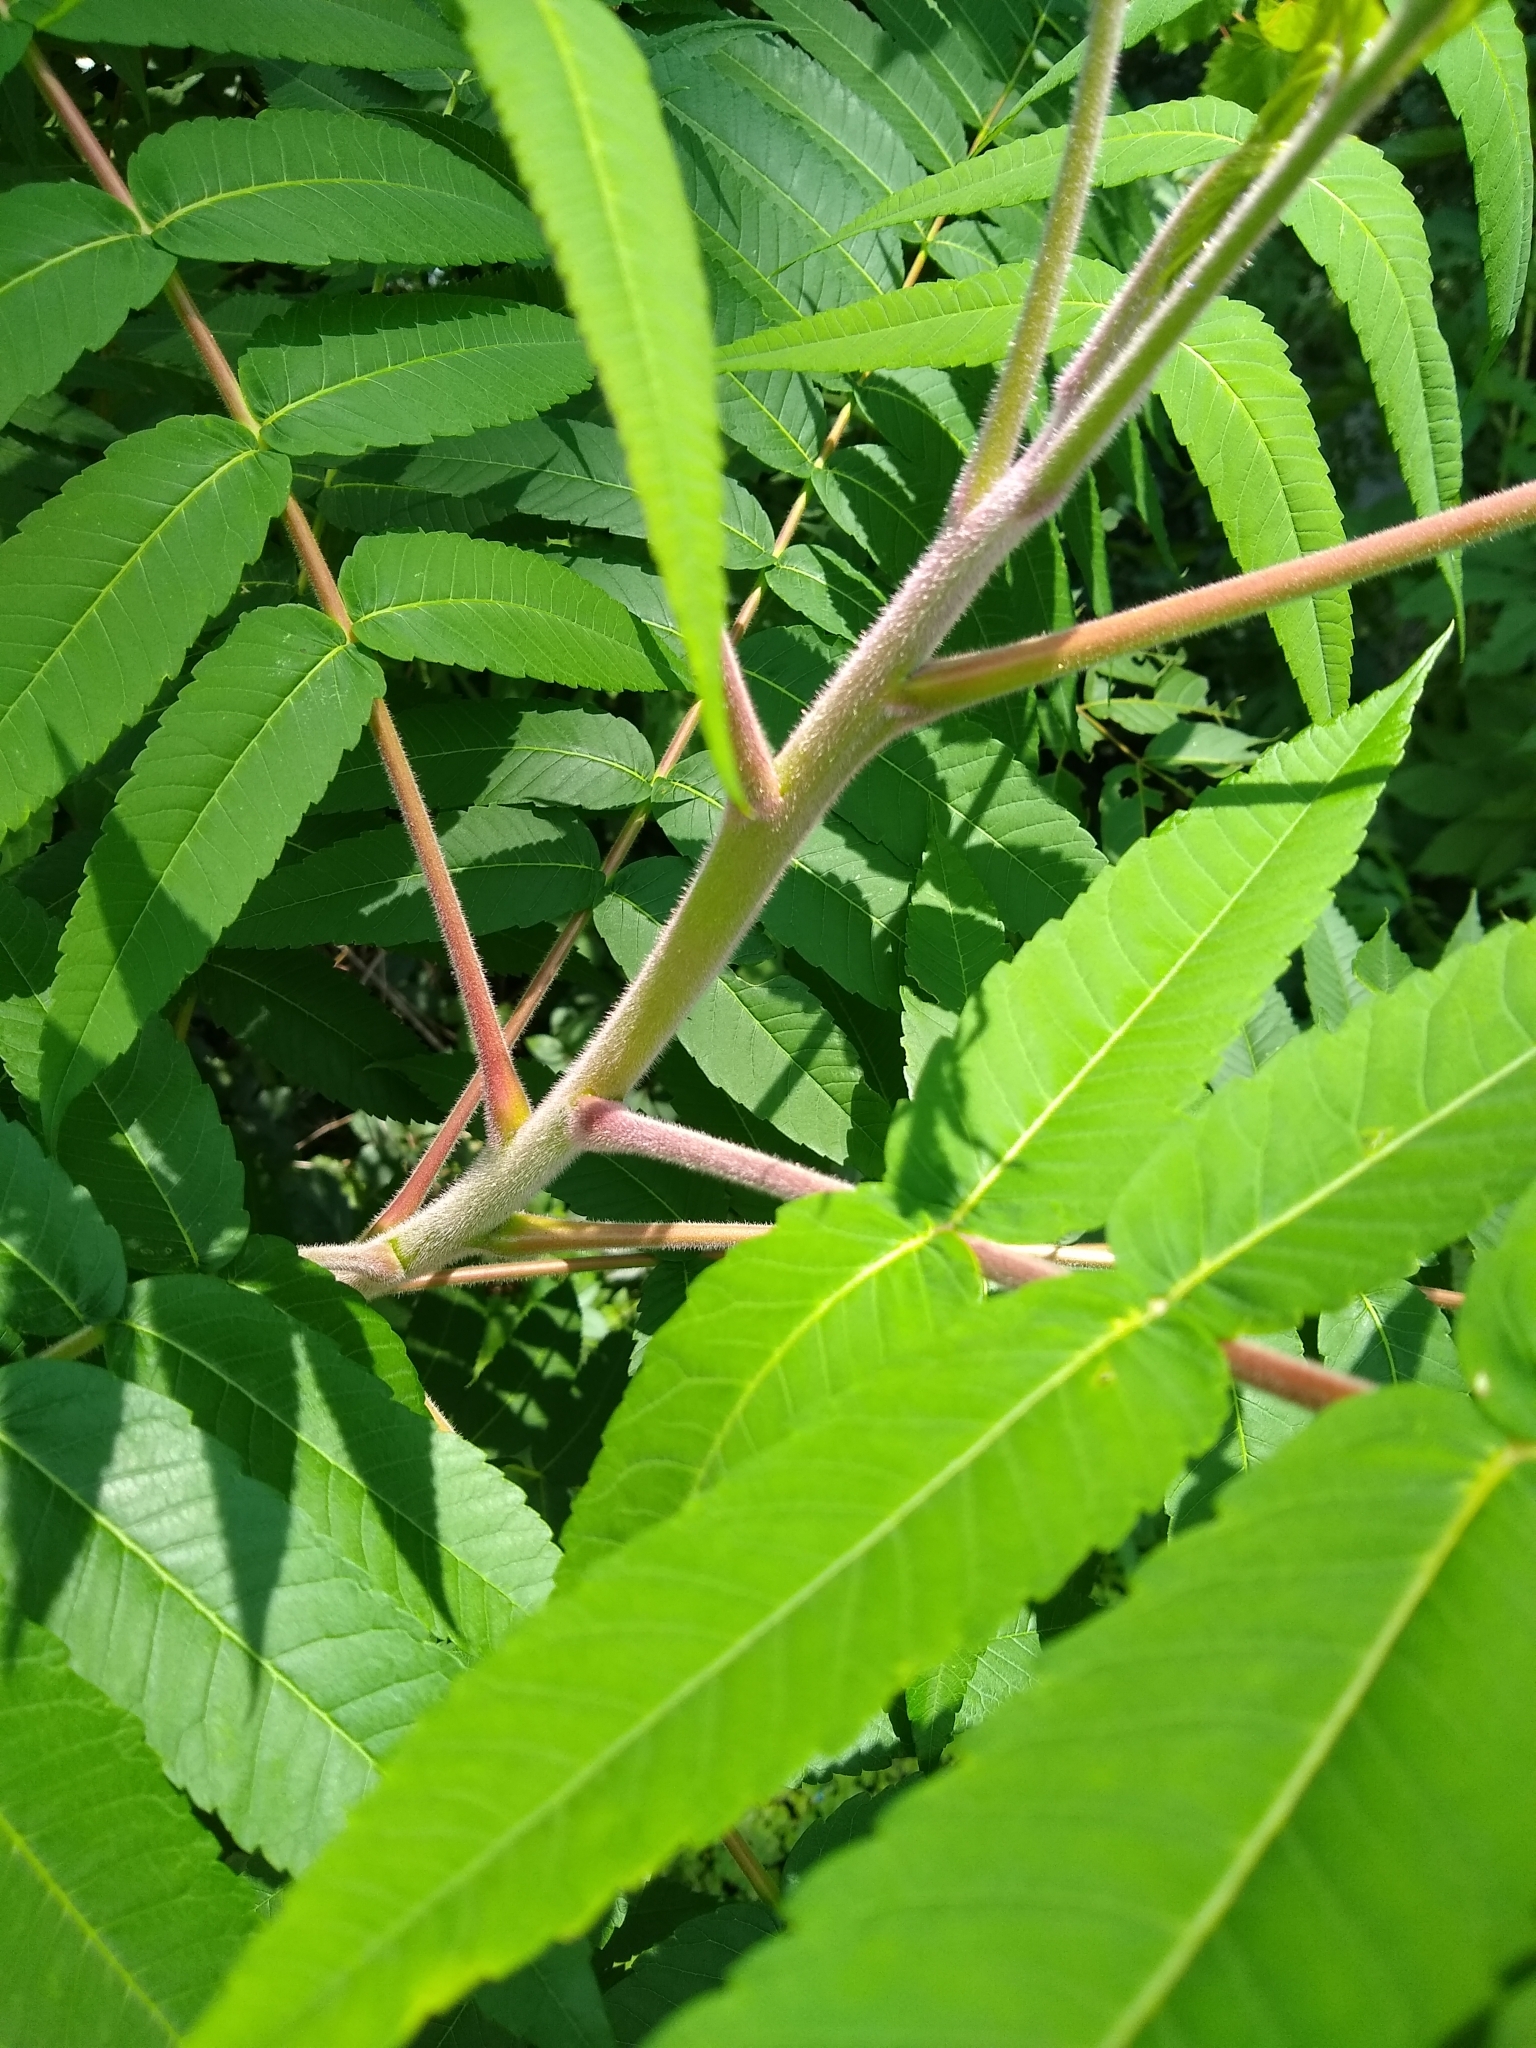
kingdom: Plantae
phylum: Tracheophyta
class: Magnoliopsida
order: Sapindales
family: Anacardiaceae
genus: Rhus
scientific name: Rhus typhina
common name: Staghorn sumac
